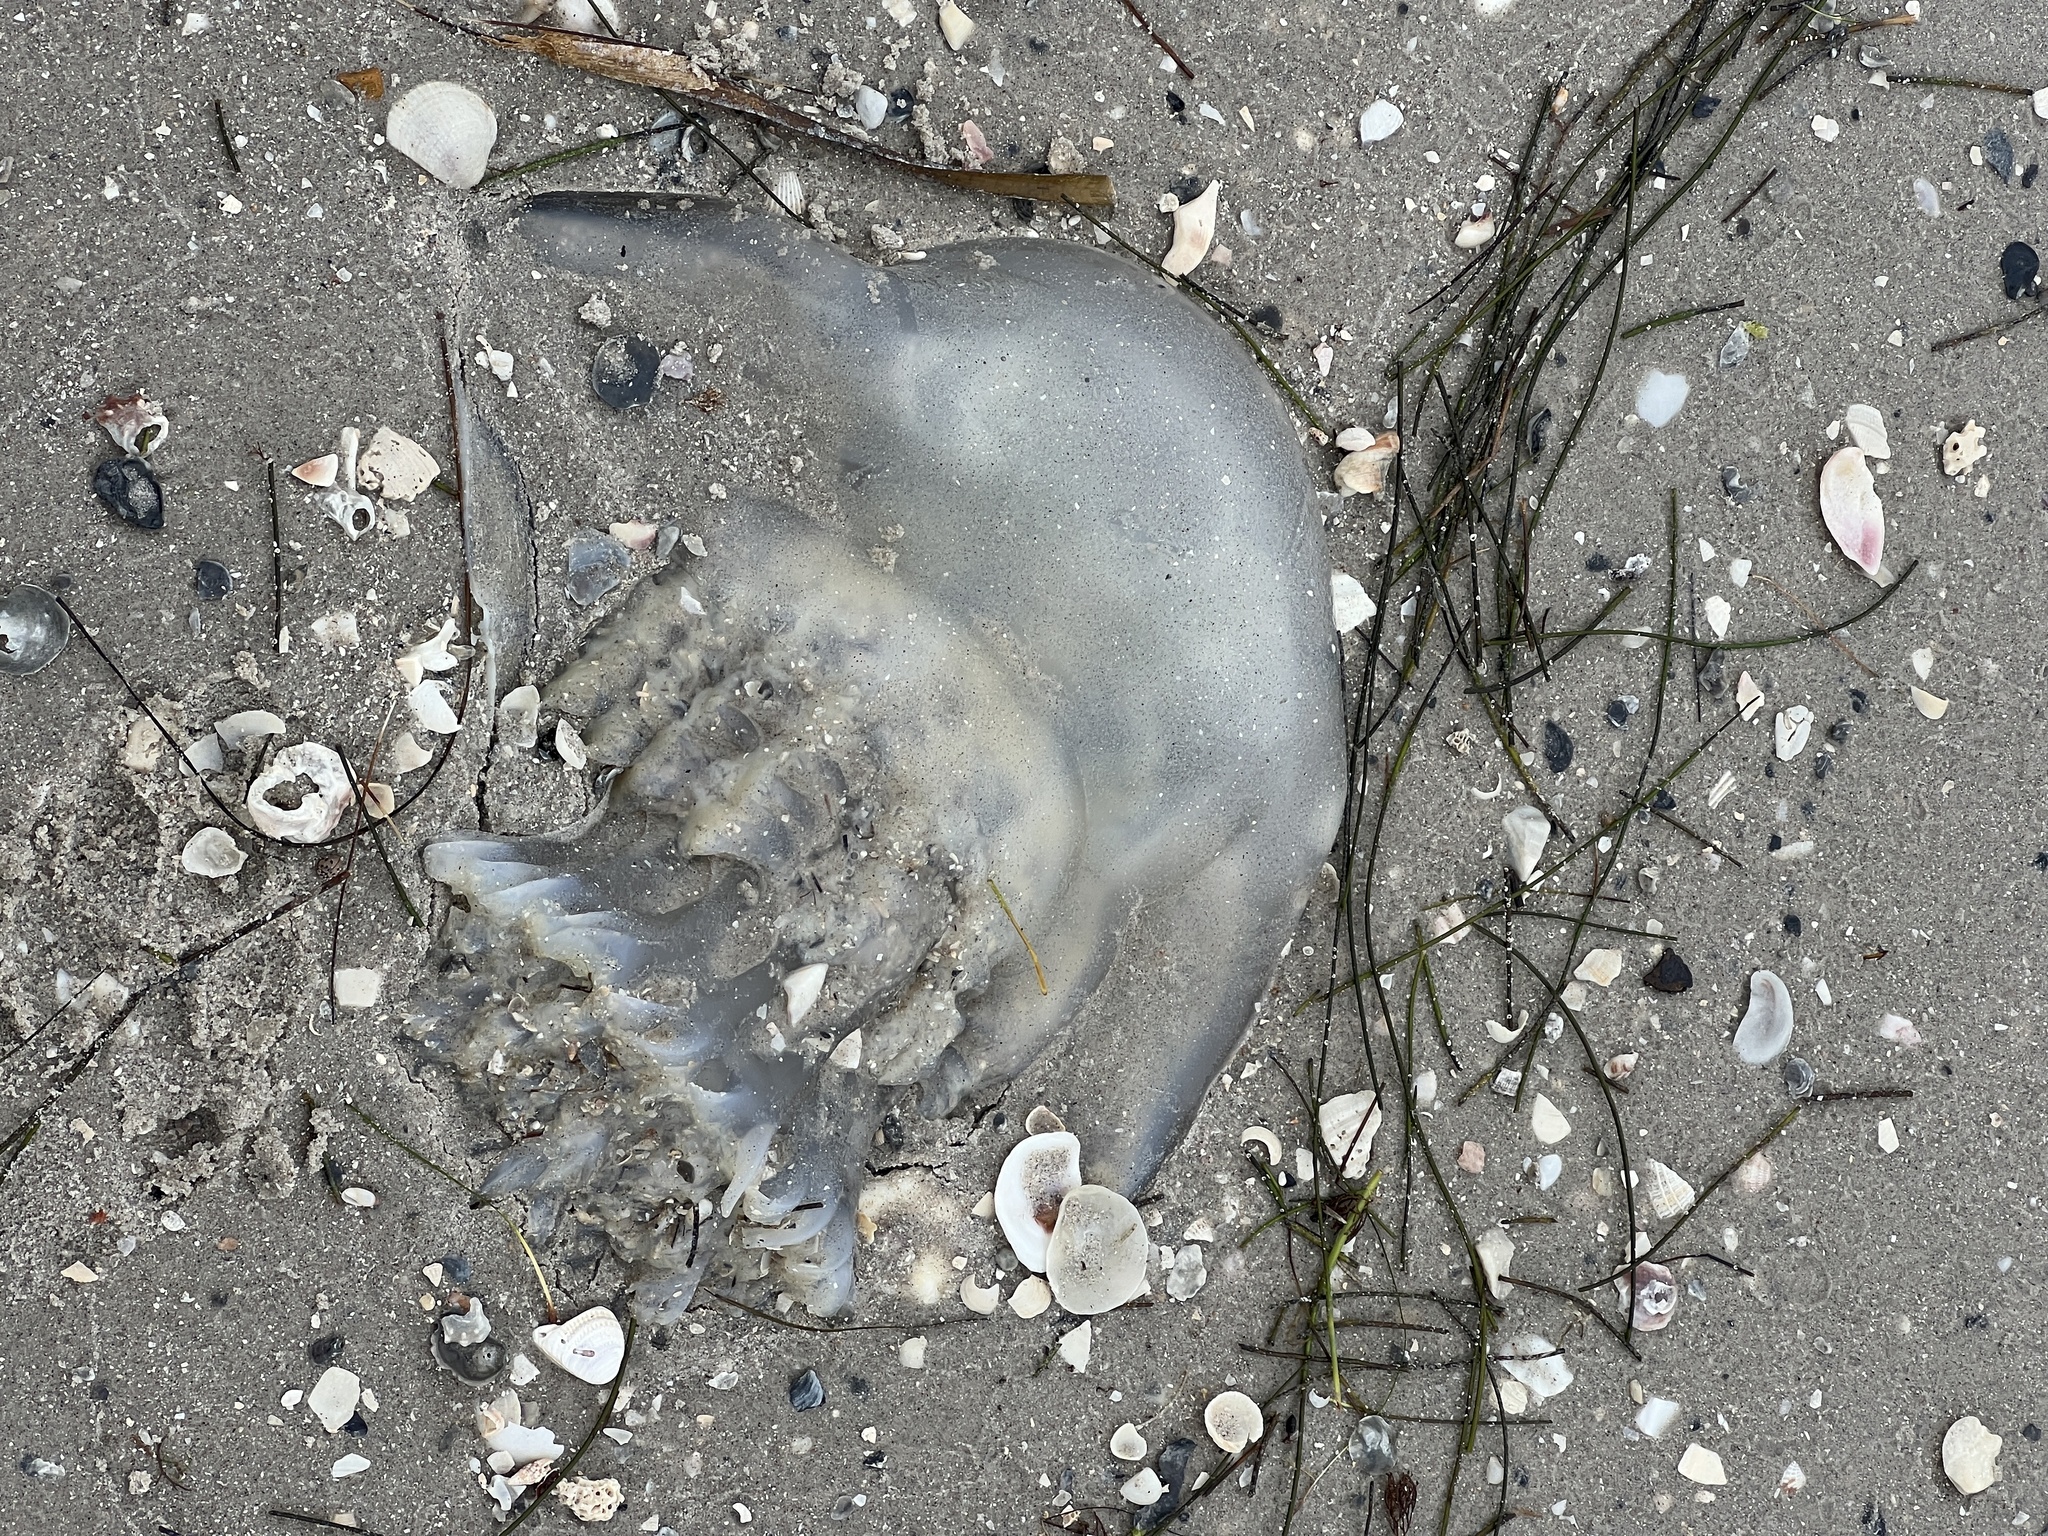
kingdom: Animalia
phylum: Cnidaria
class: Scyphozoa
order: Rhizostomeae
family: Stomolophidae
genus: Stomolophus
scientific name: Stomolophus meleagris
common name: Cabbagehead
